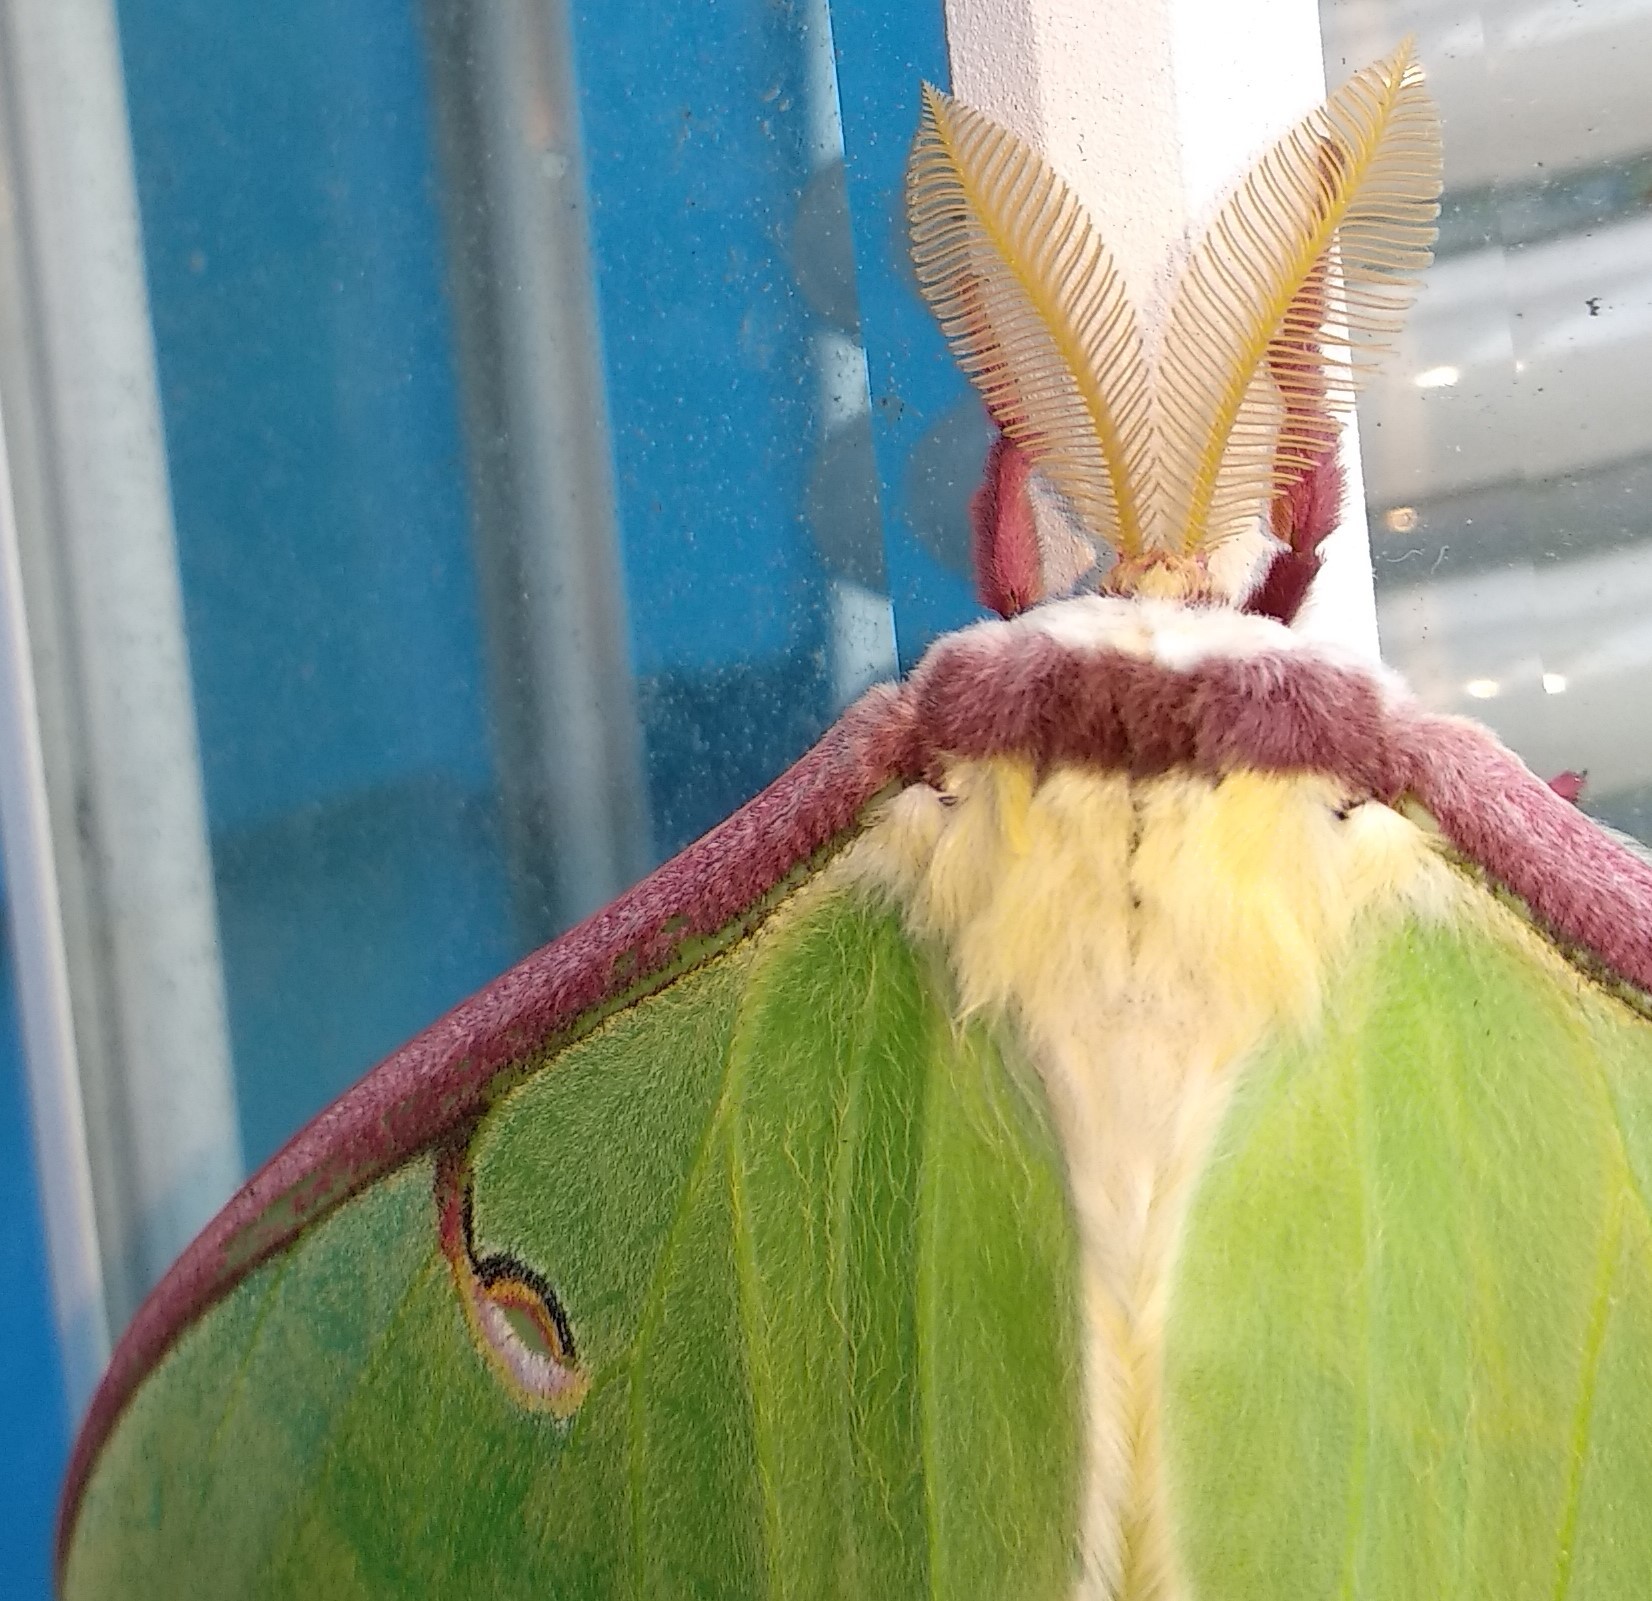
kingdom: Animalia
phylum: Arthropoda
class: Insecta
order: Lepidoptera
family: Saturniidae
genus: Actias
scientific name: Actias luna
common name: Luna moth
